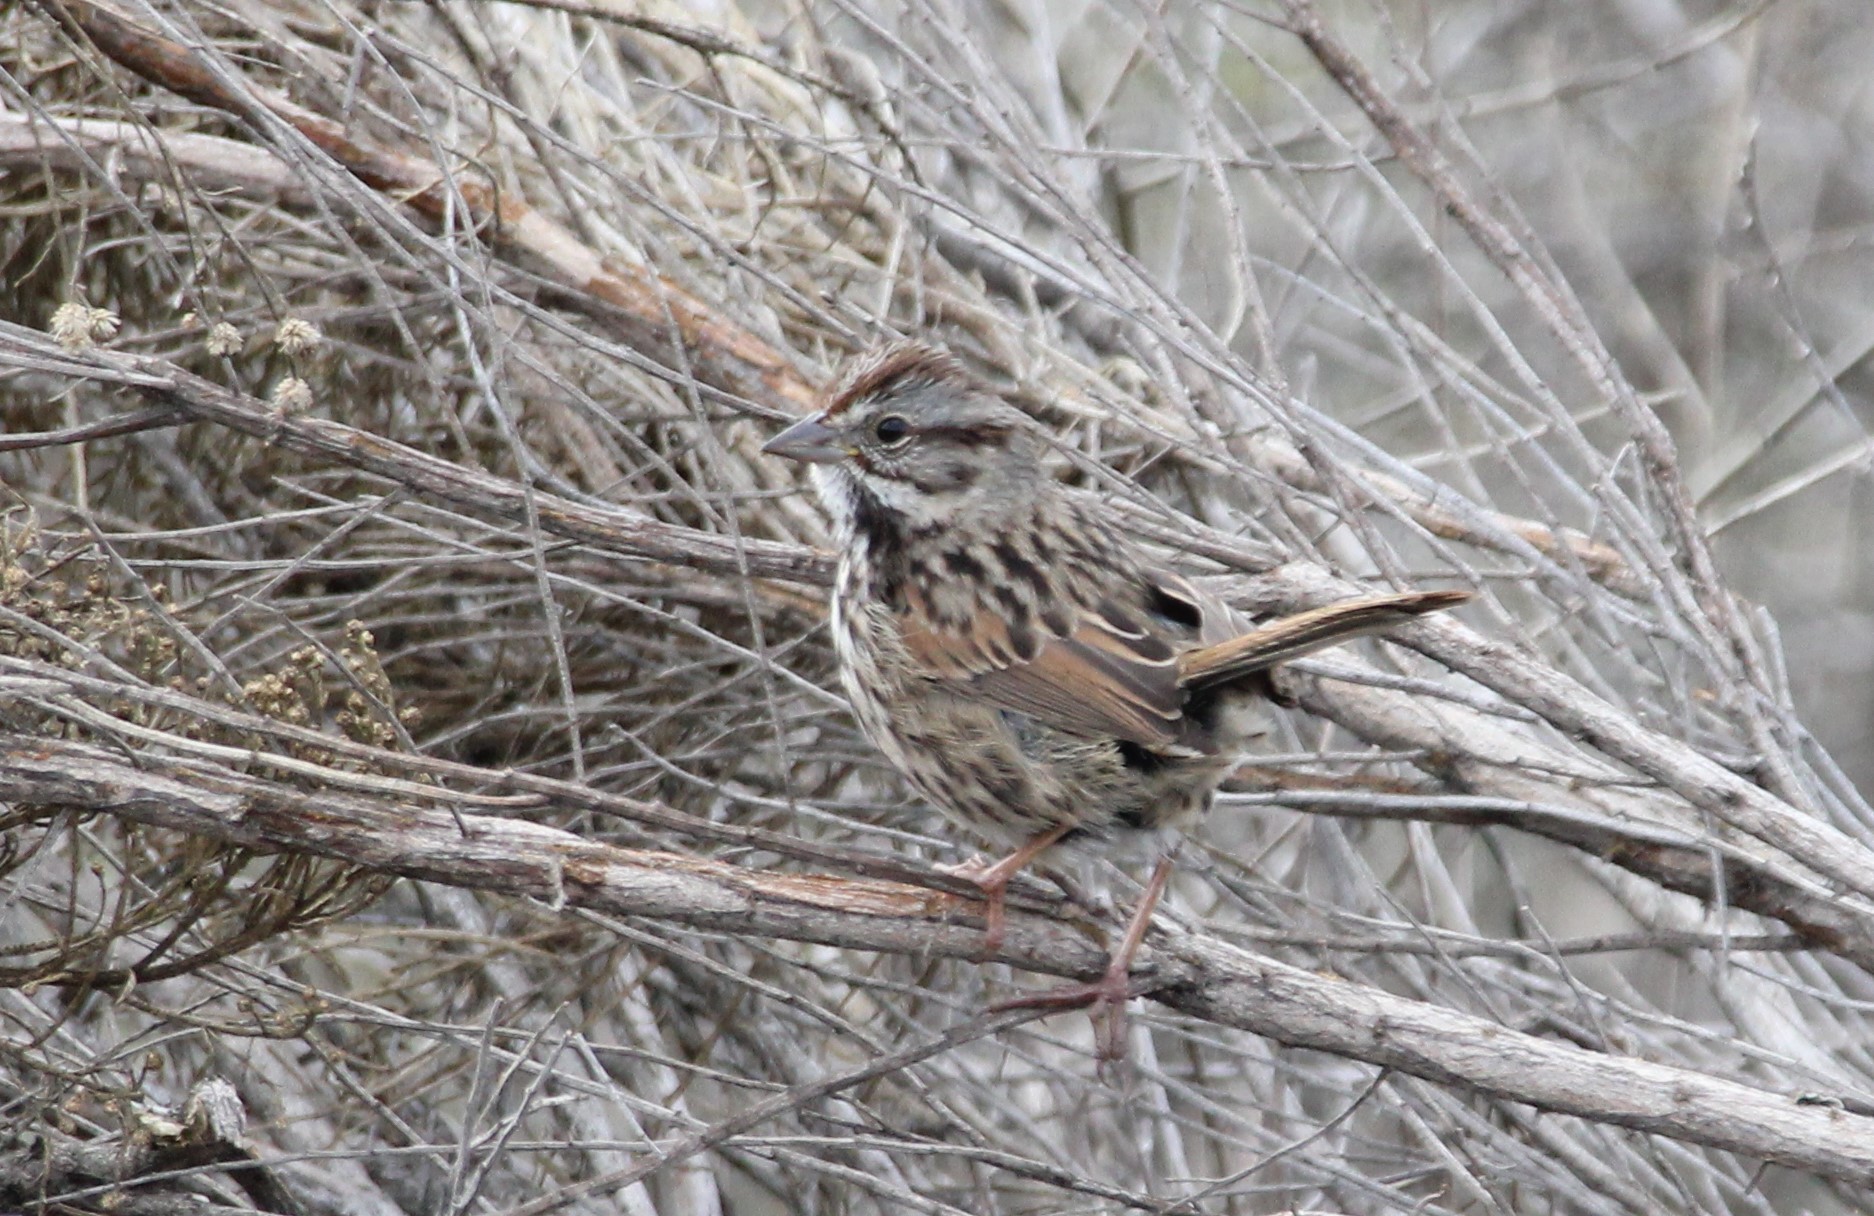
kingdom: Animalia
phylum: Chordata
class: Aves
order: Passeriformes
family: Passerellidae
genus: Melospiza
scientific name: Melospiza melodia
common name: Song sparrow
